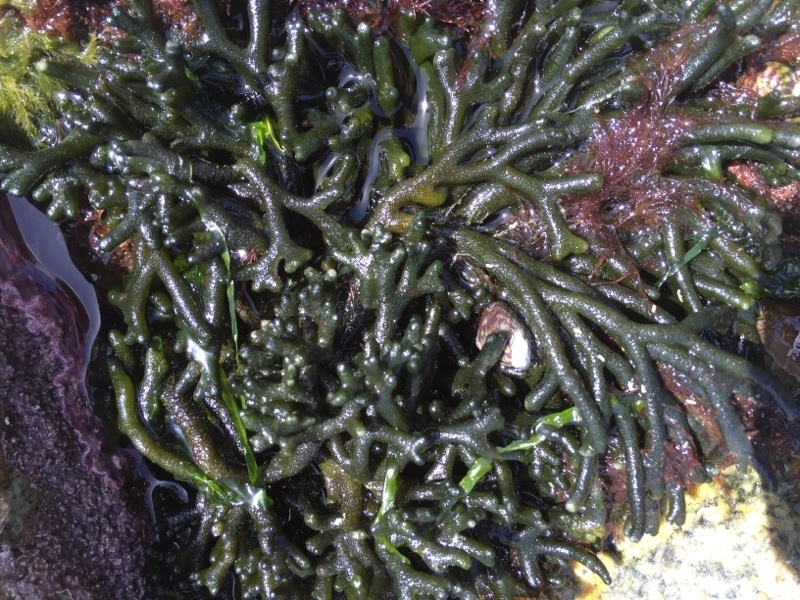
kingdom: Plantae
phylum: Chlorophyta
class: Ulvophyceae
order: Bryopsidales
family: Codiaceae
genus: Codium
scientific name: Codium tomentosum
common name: Velvet horn
